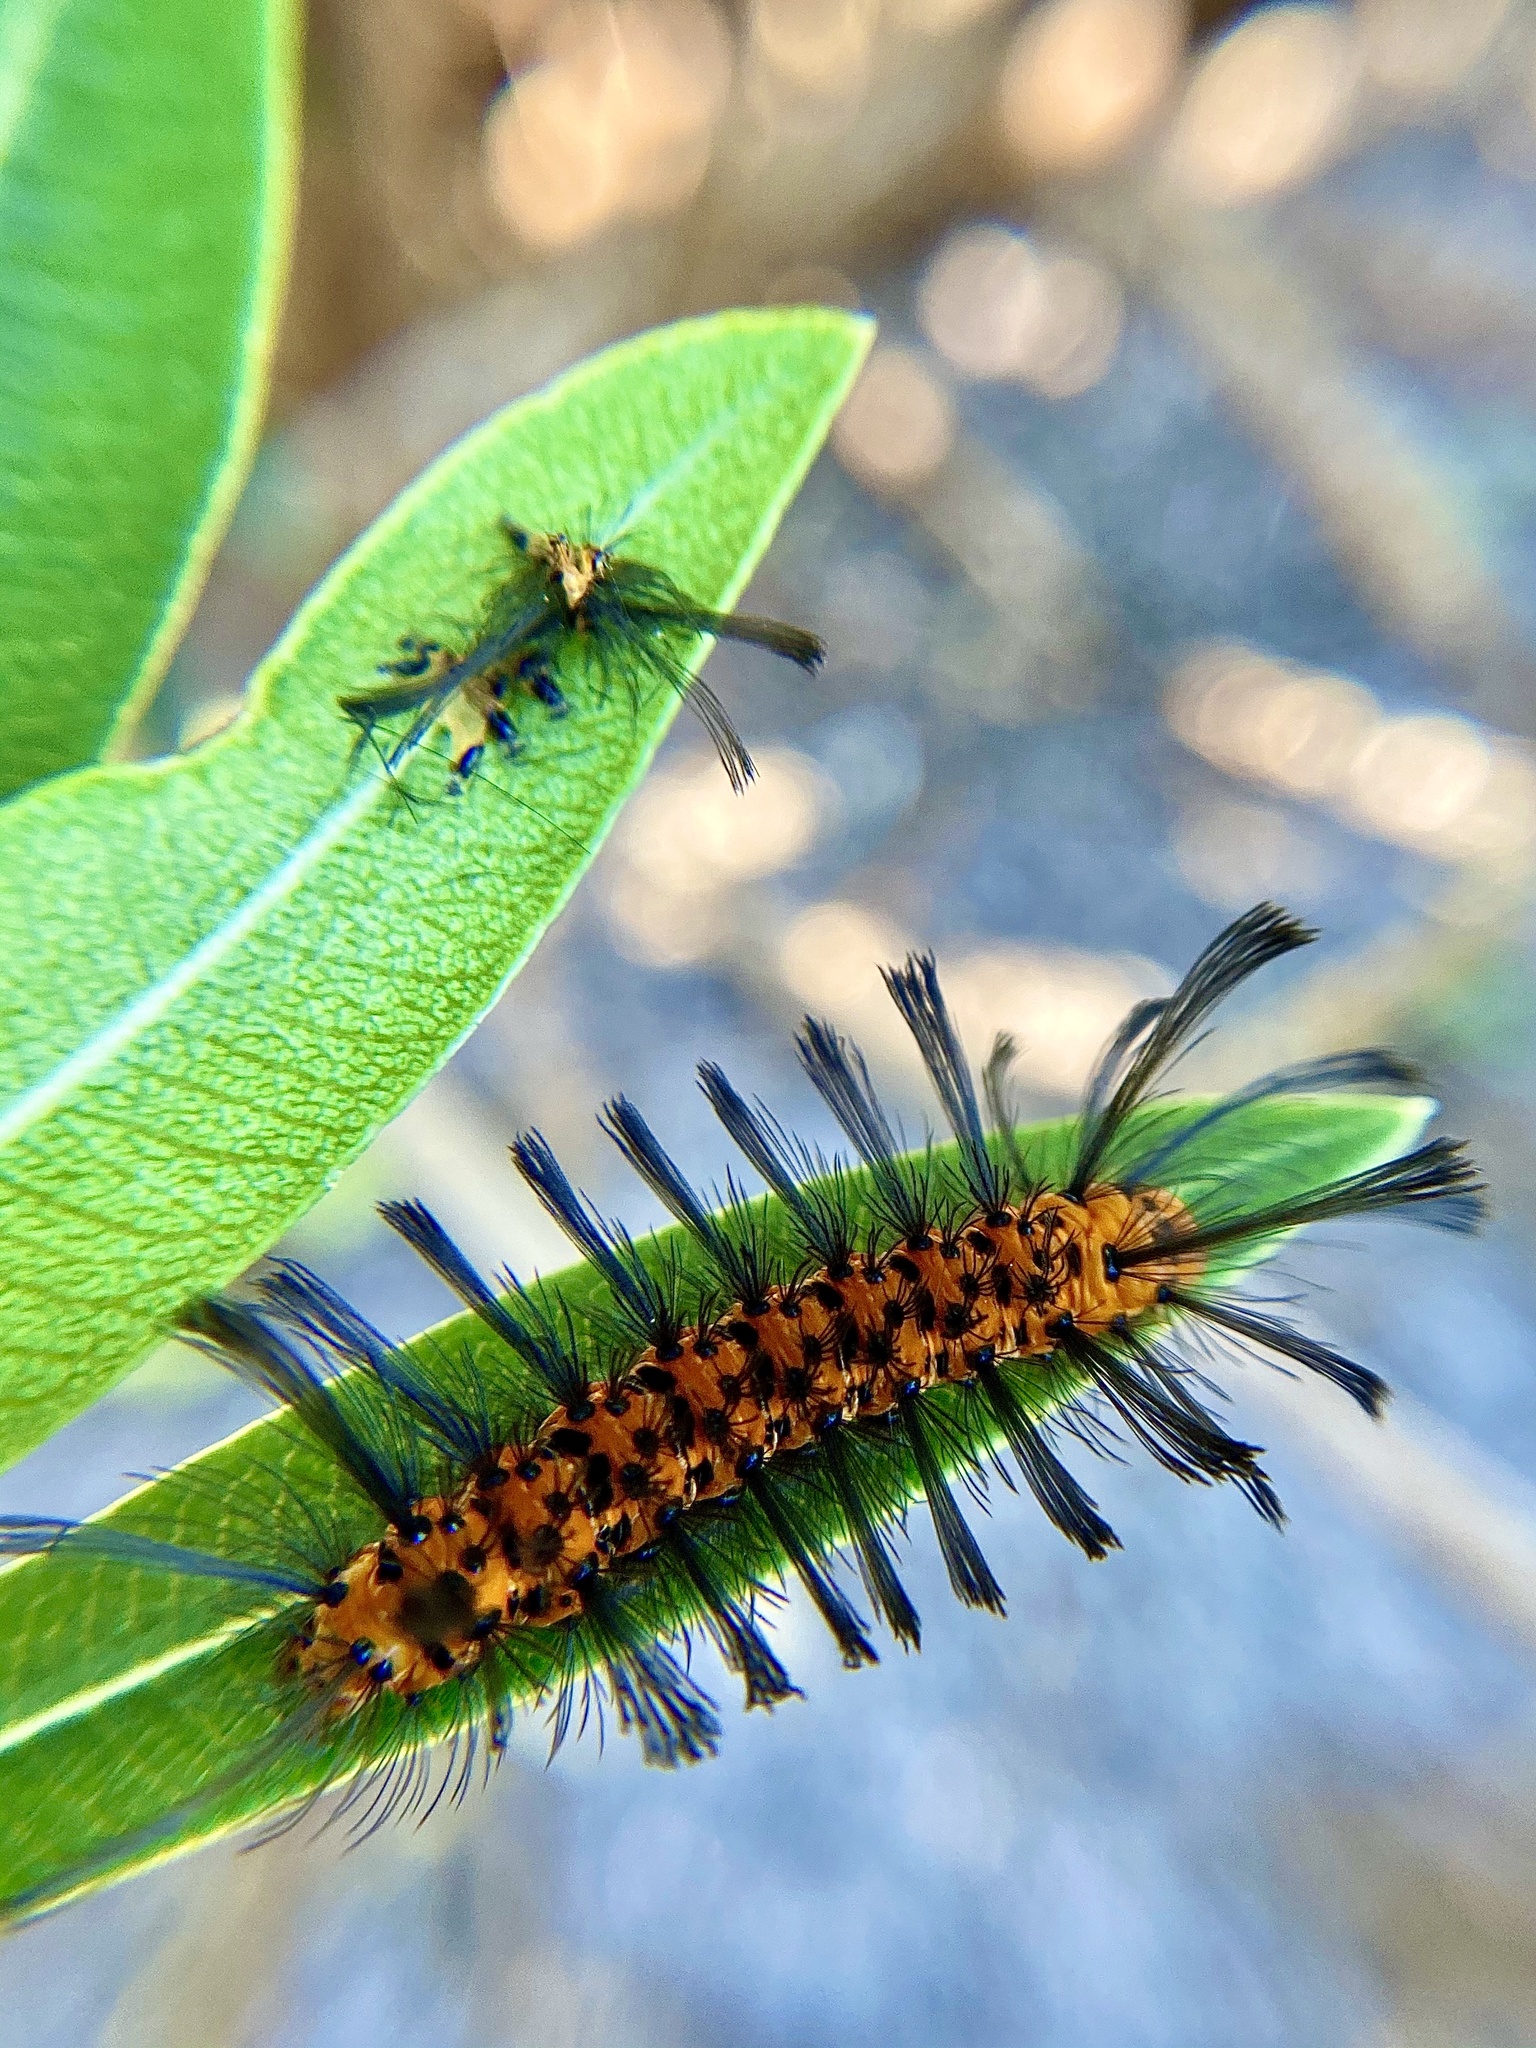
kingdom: Animalia
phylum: Arthropoda
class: Insecta
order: Lepidoptera
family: Erebidae
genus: Syntomeida
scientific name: Syntomeida epilais
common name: Polka-dot wasp moth
